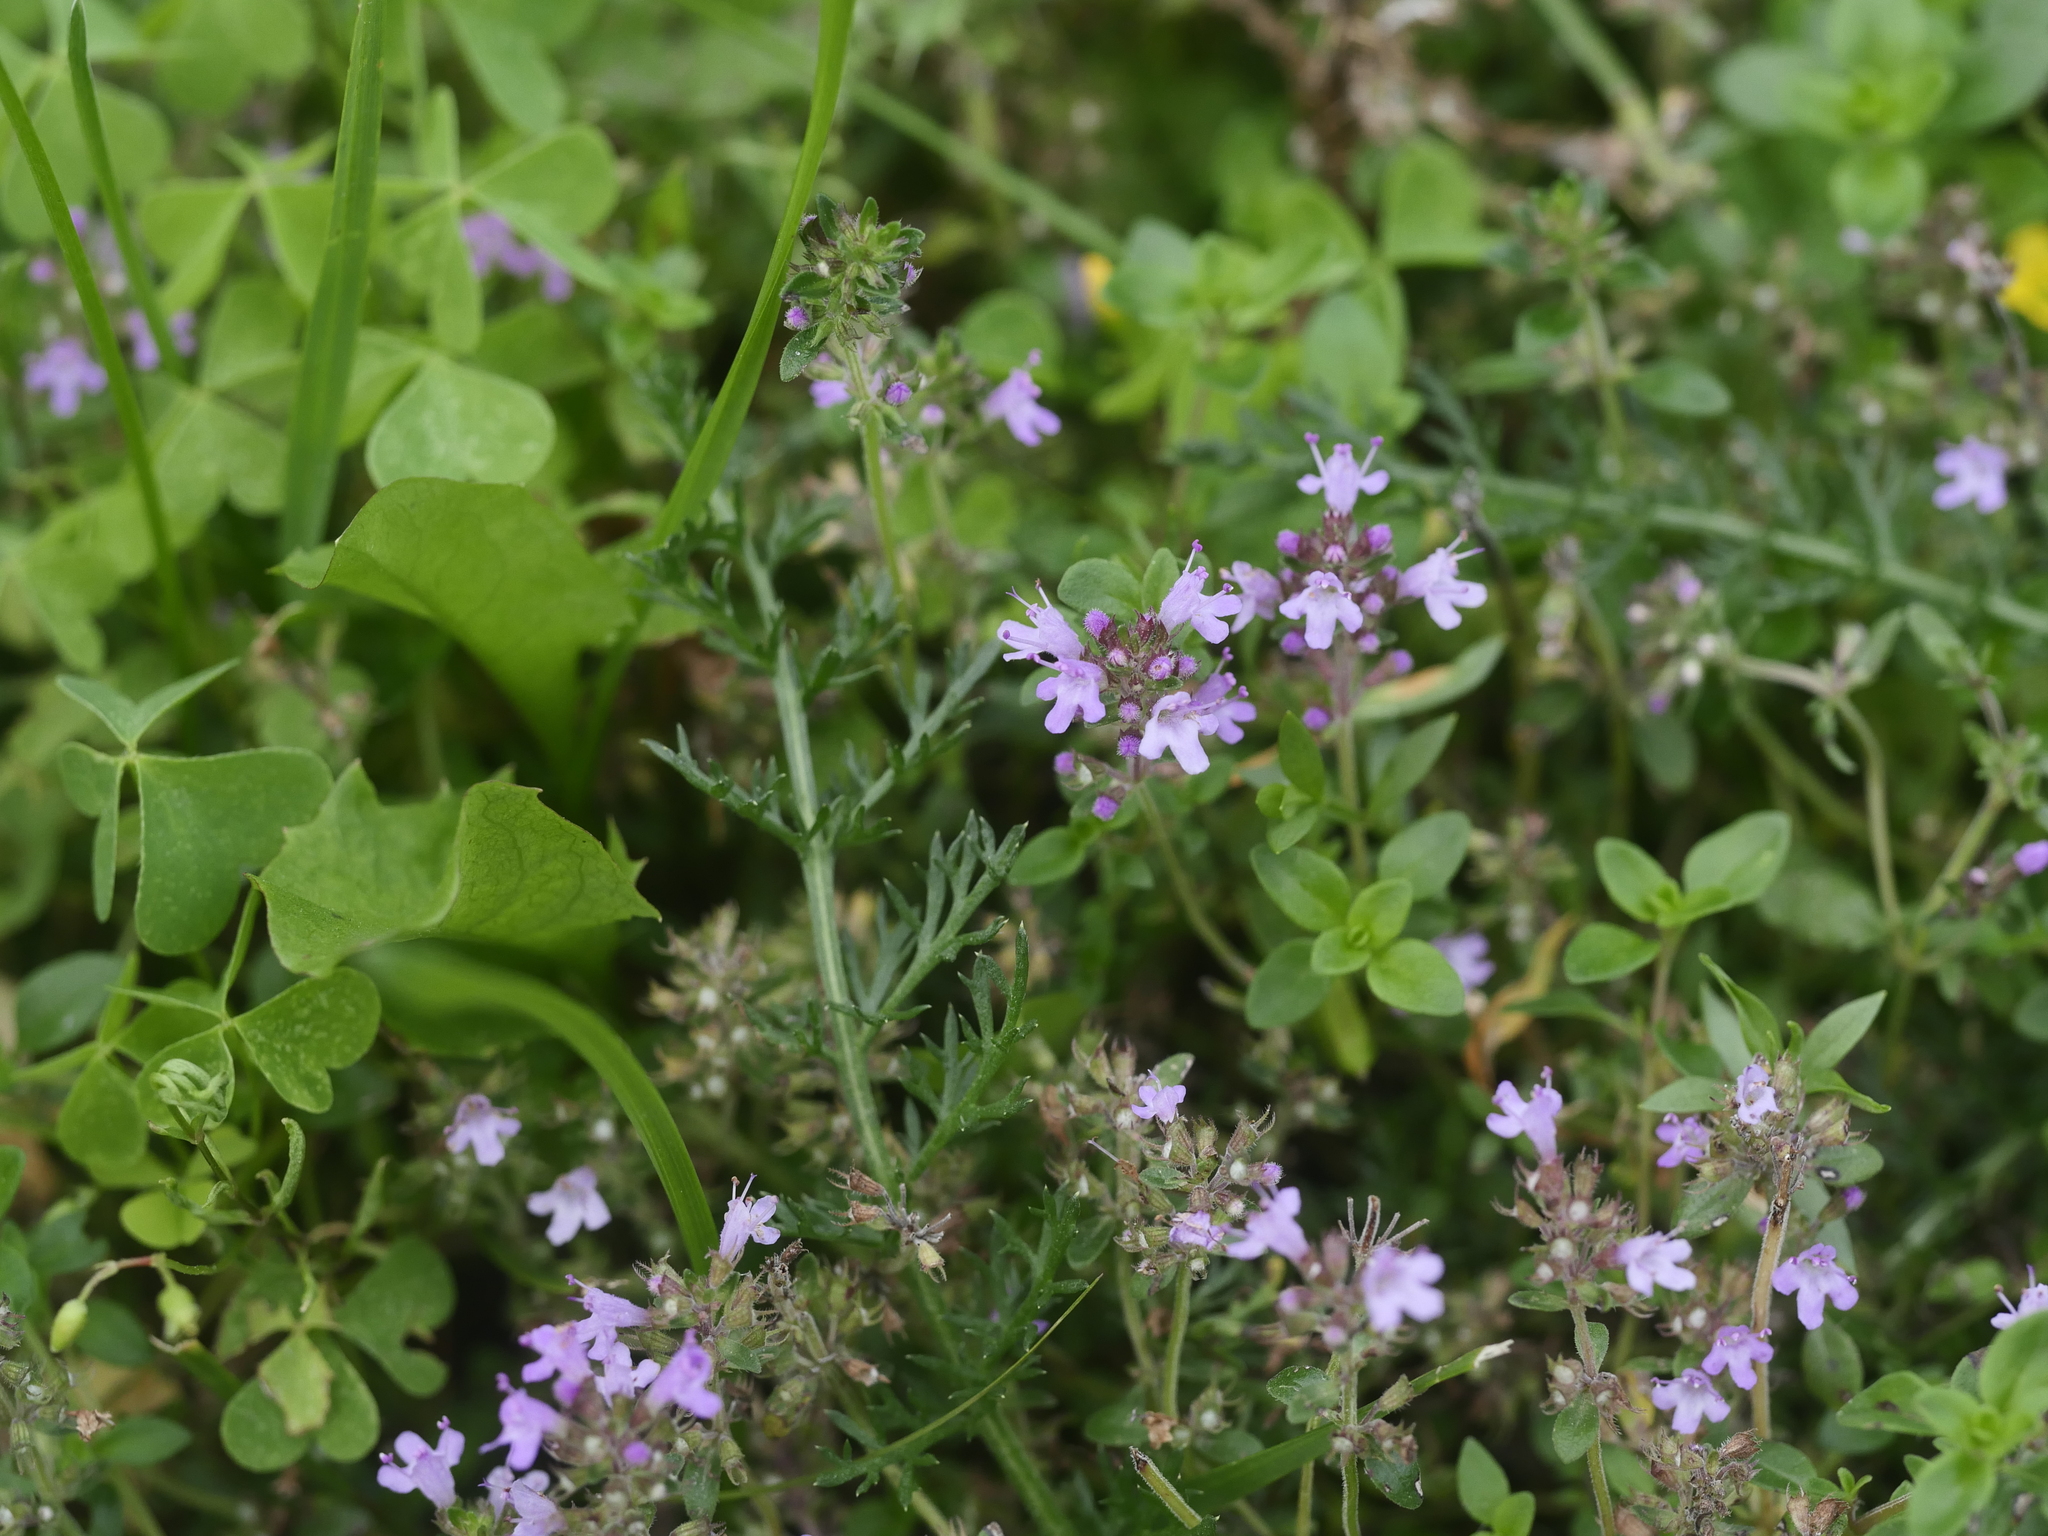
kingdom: Plantae
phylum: Tracheophyta
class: Magnoliopsida
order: Lamiales
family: Lamiaceae
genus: Thymus
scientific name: Thymus pulegioides
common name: Large thyme
